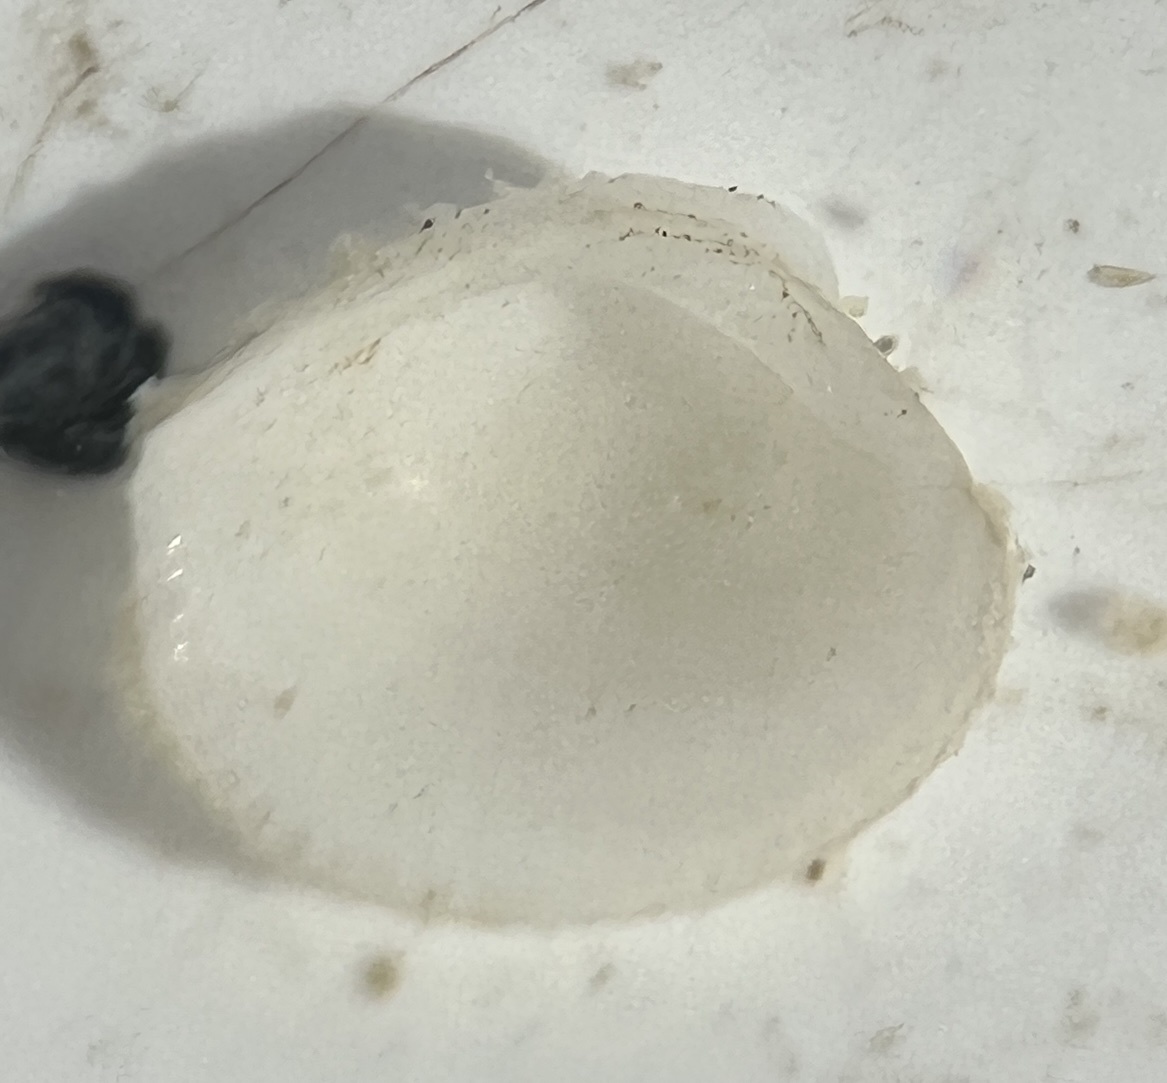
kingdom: Animalia
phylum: Mollusca
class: Bivalvia
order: Venerida
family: Veneridae
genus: Chione
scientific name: Chione elevata
